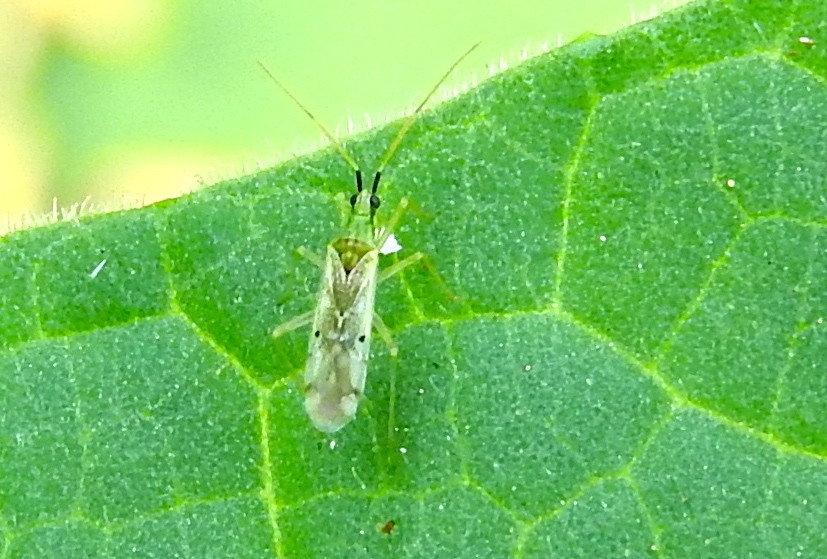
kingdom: Animalia
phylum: Arthropoda
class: Insecta
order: Hemiptera
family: Miridae
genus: Macrolophus
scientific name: Macrolophus praeclarus
